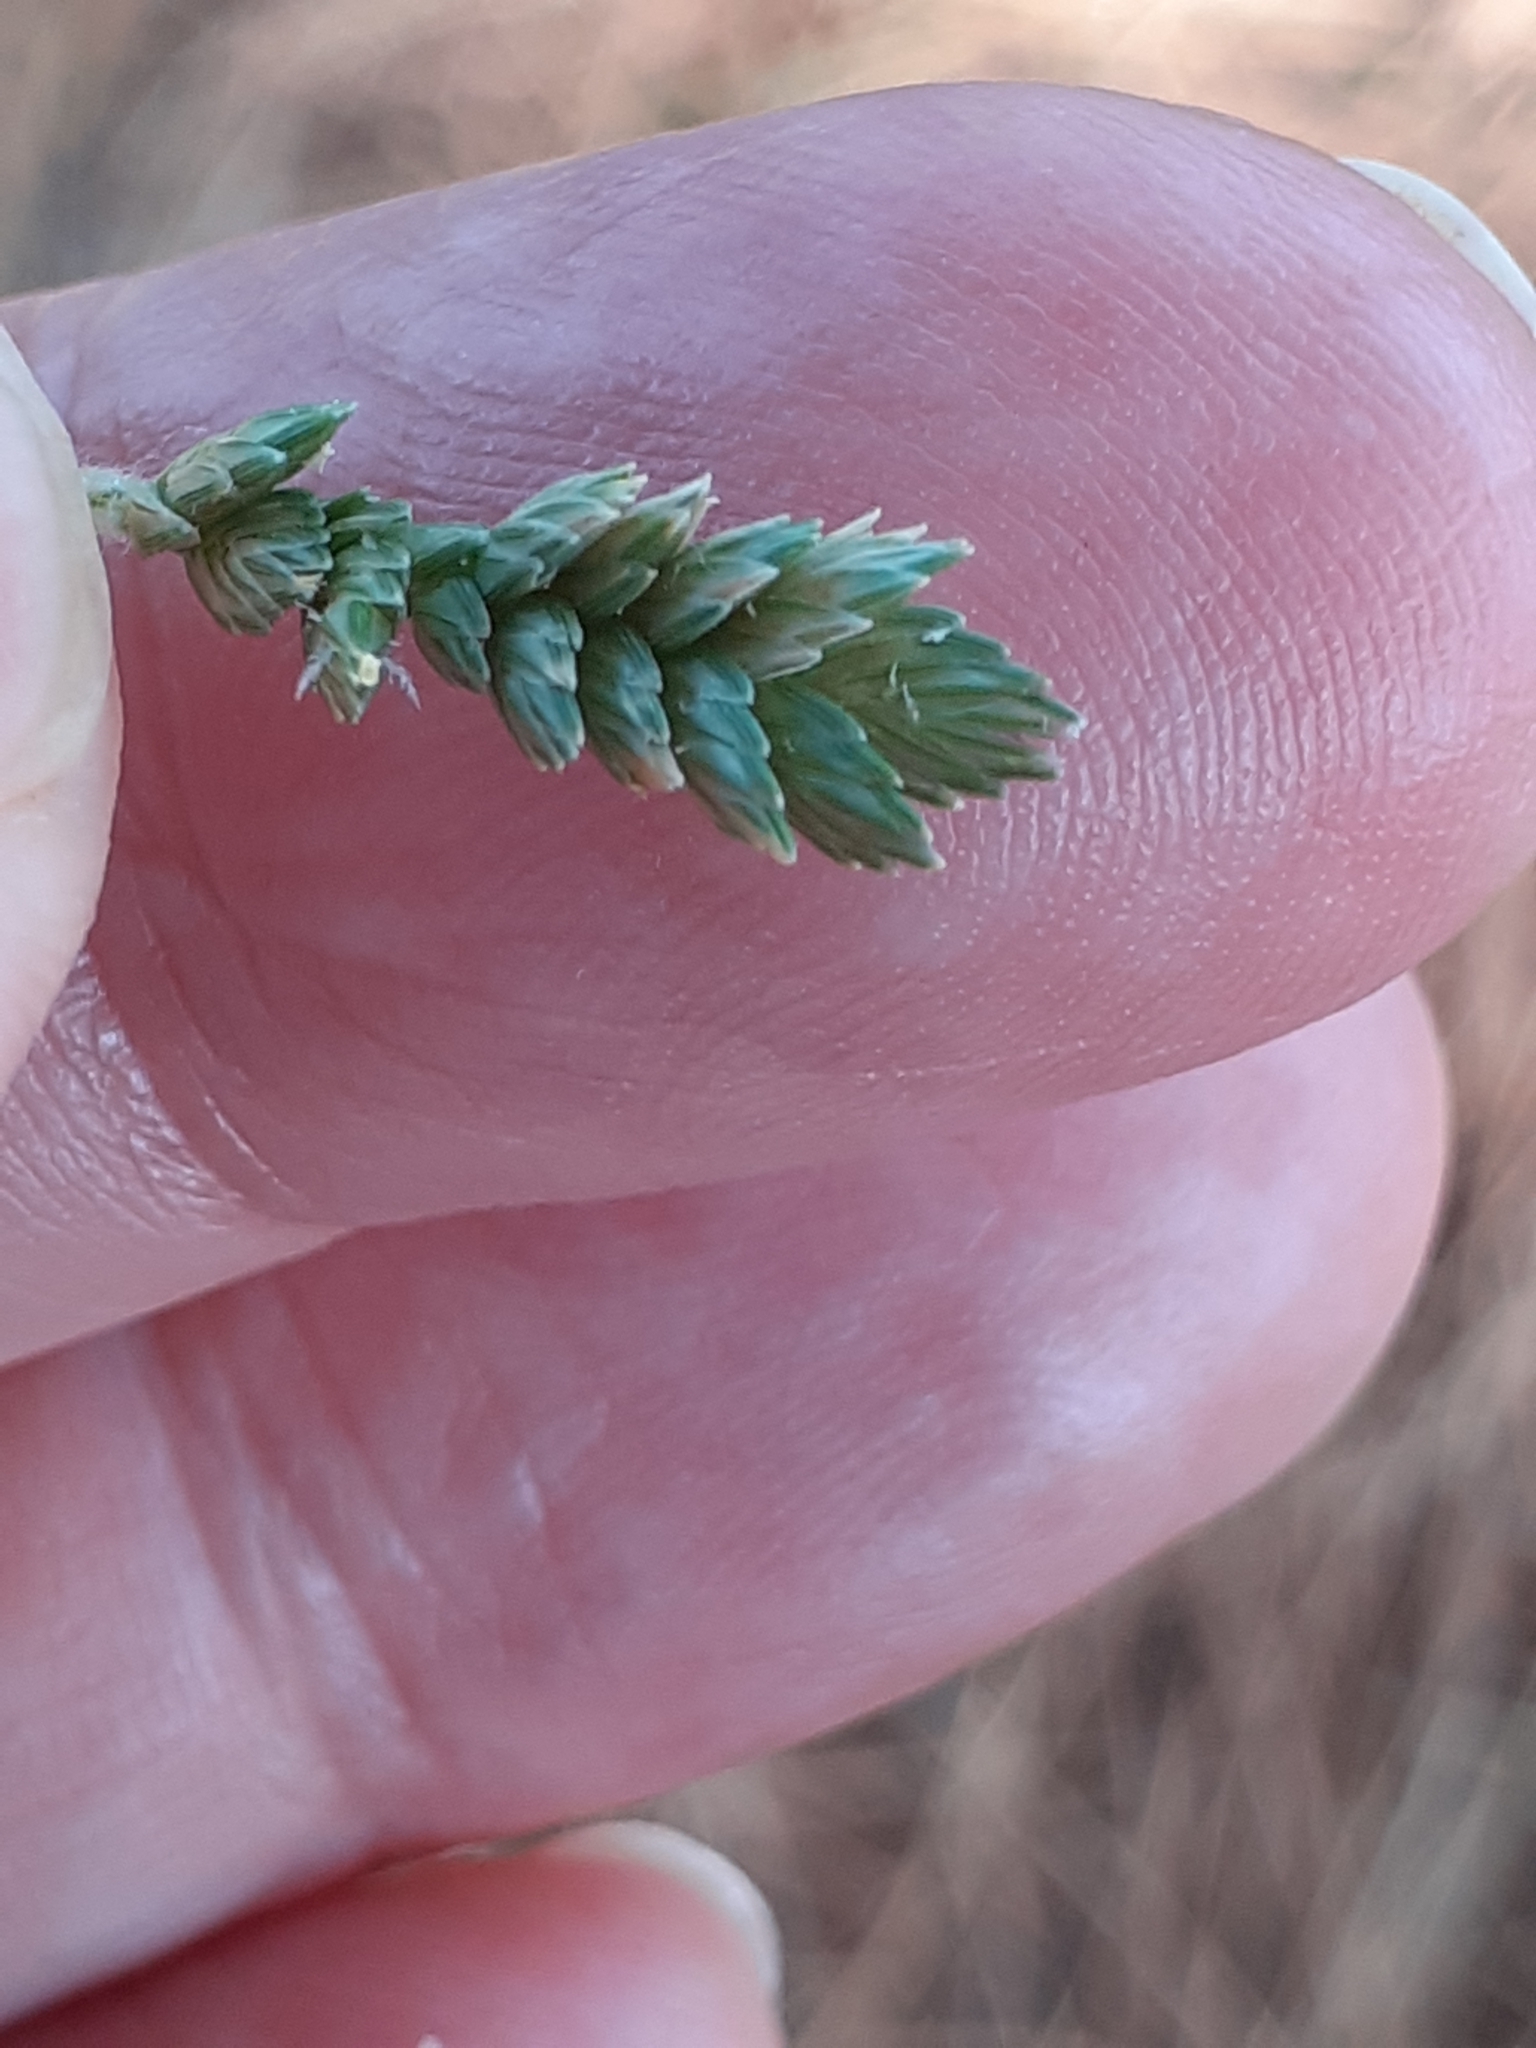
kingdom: Plantae
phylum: Tracheophyta
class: Liliopsida
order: Poales
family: Poaceae
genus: Eleusine
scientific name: Eleusine tristachya
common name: American yard-grass
